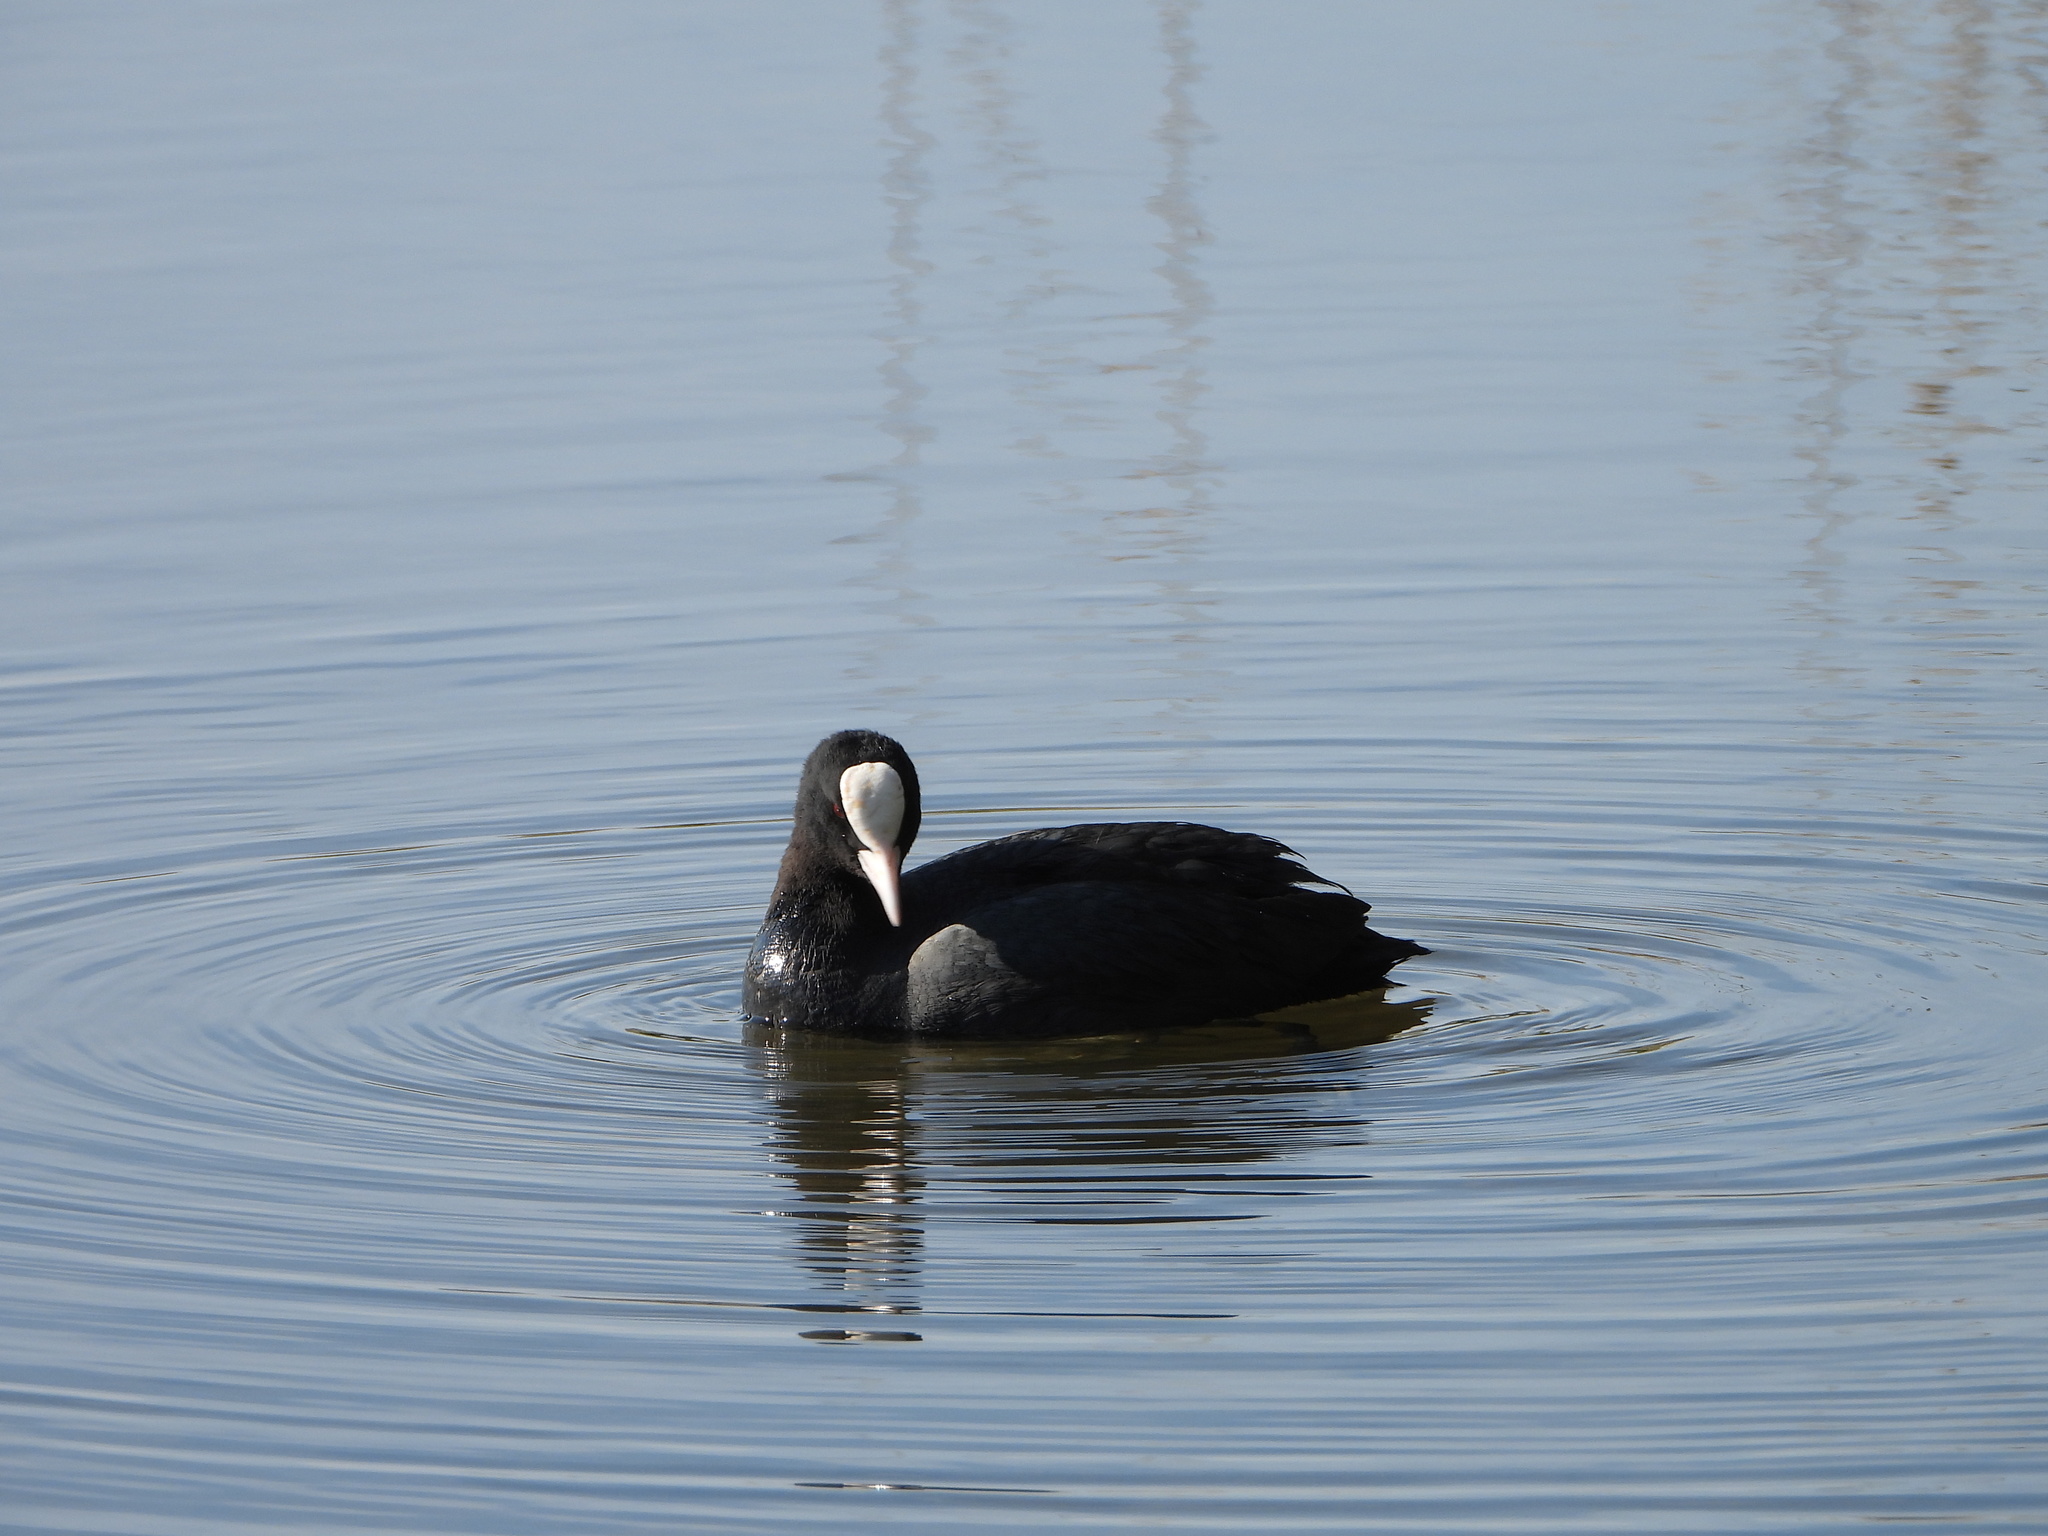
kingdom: Animalia
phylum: Chordata
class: Aves
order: Gruiformes
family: Rallidae
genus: Fulica
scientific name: Fulica atra
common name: Eurasian coot
